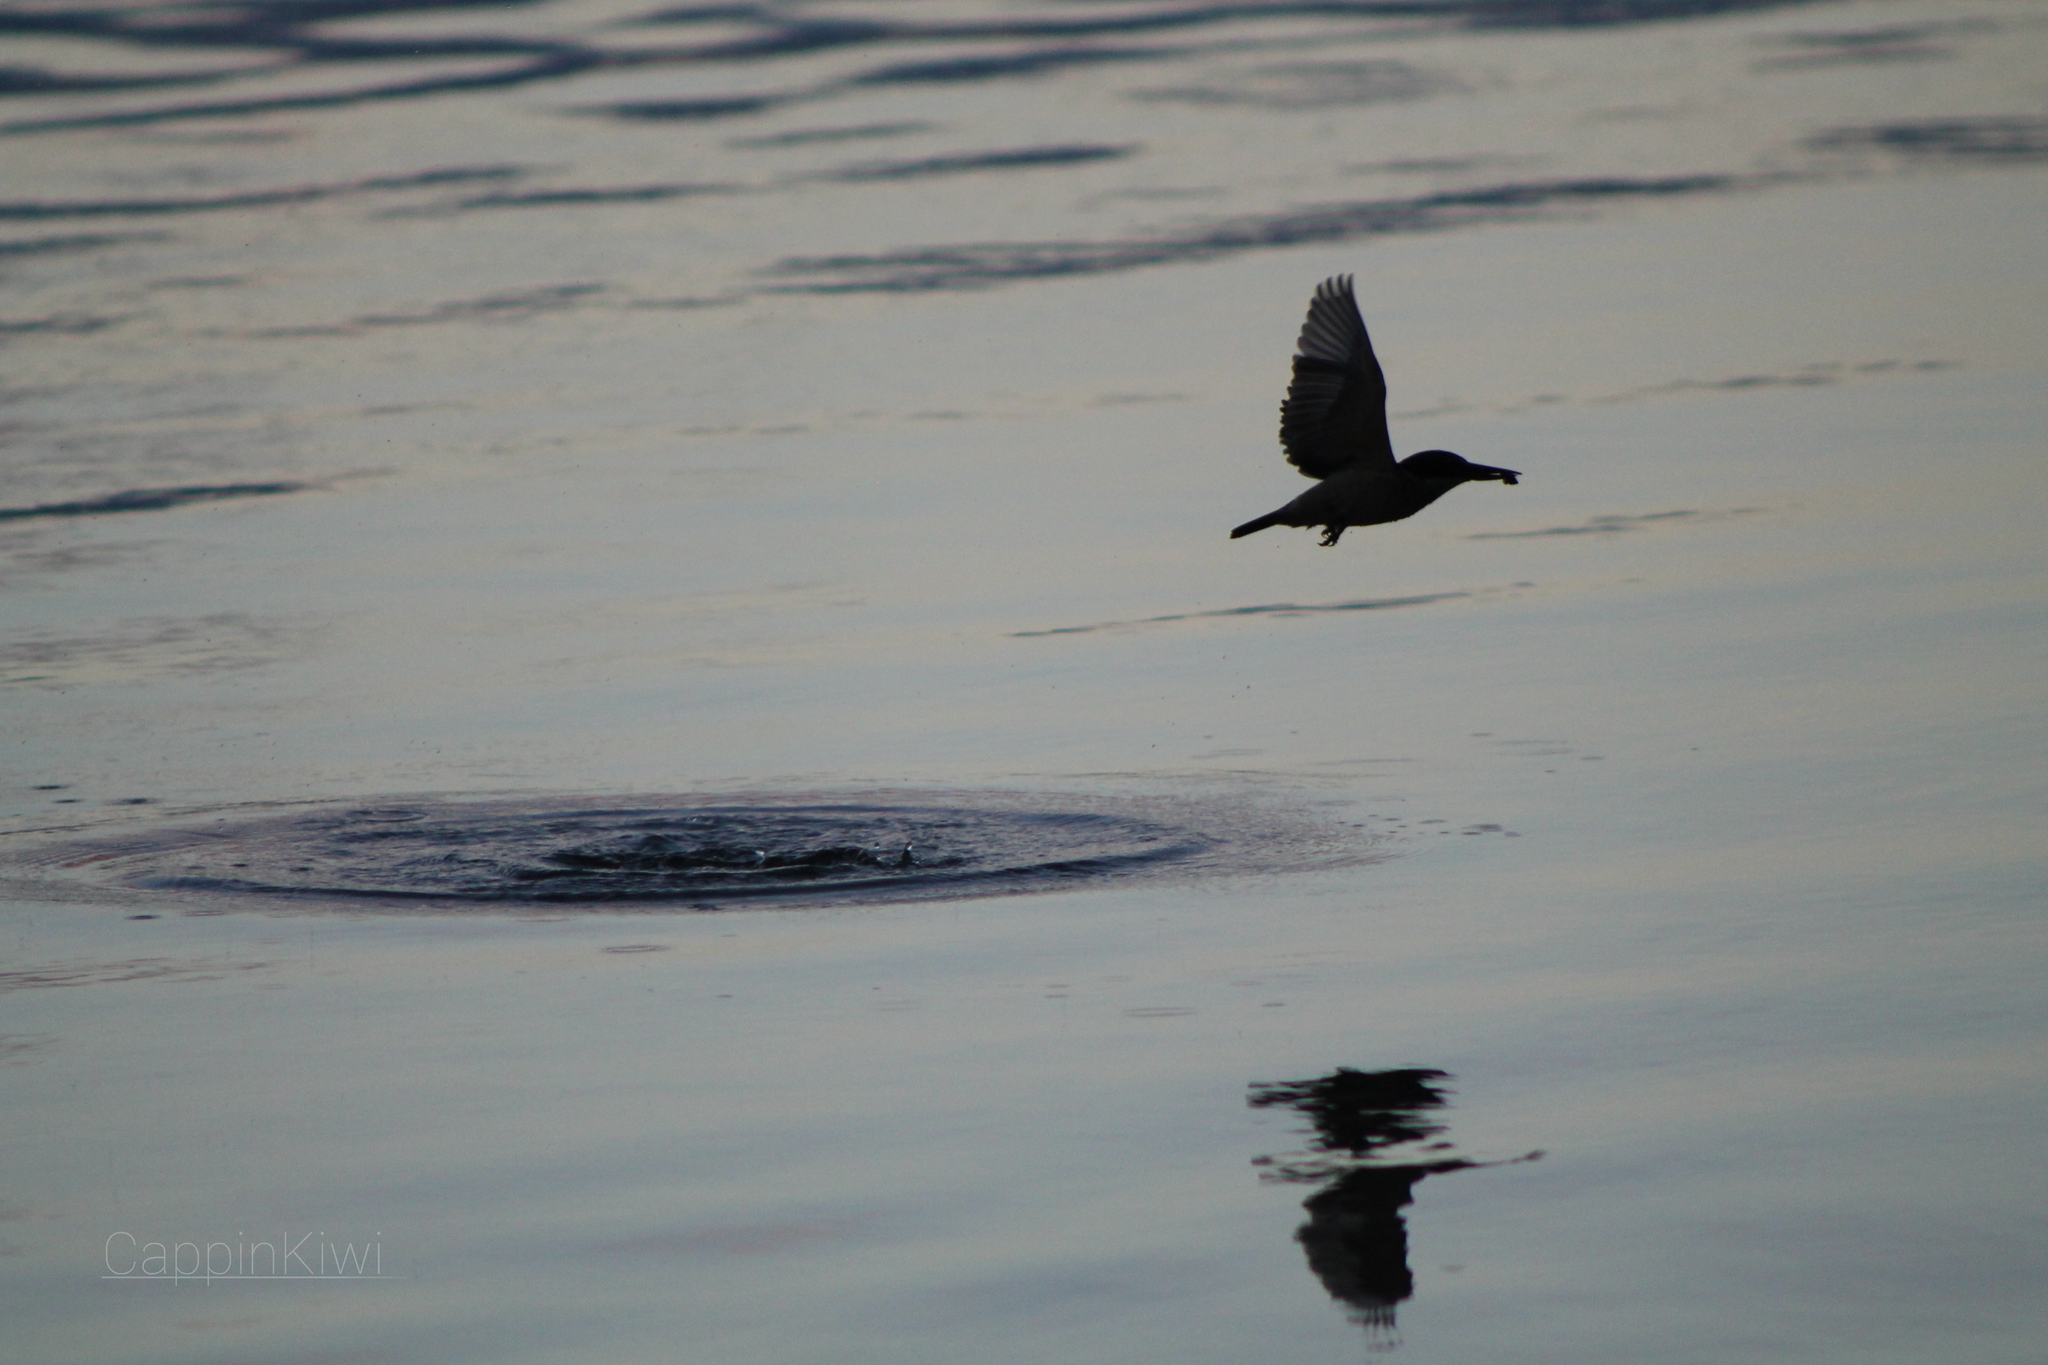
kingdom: Animalia
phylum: Chordata
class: Aves
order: Coraciiformes
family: Alcedinidae
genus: Todiramphus
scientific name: Todiramphus sanctus
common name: Sacred kingfisher
